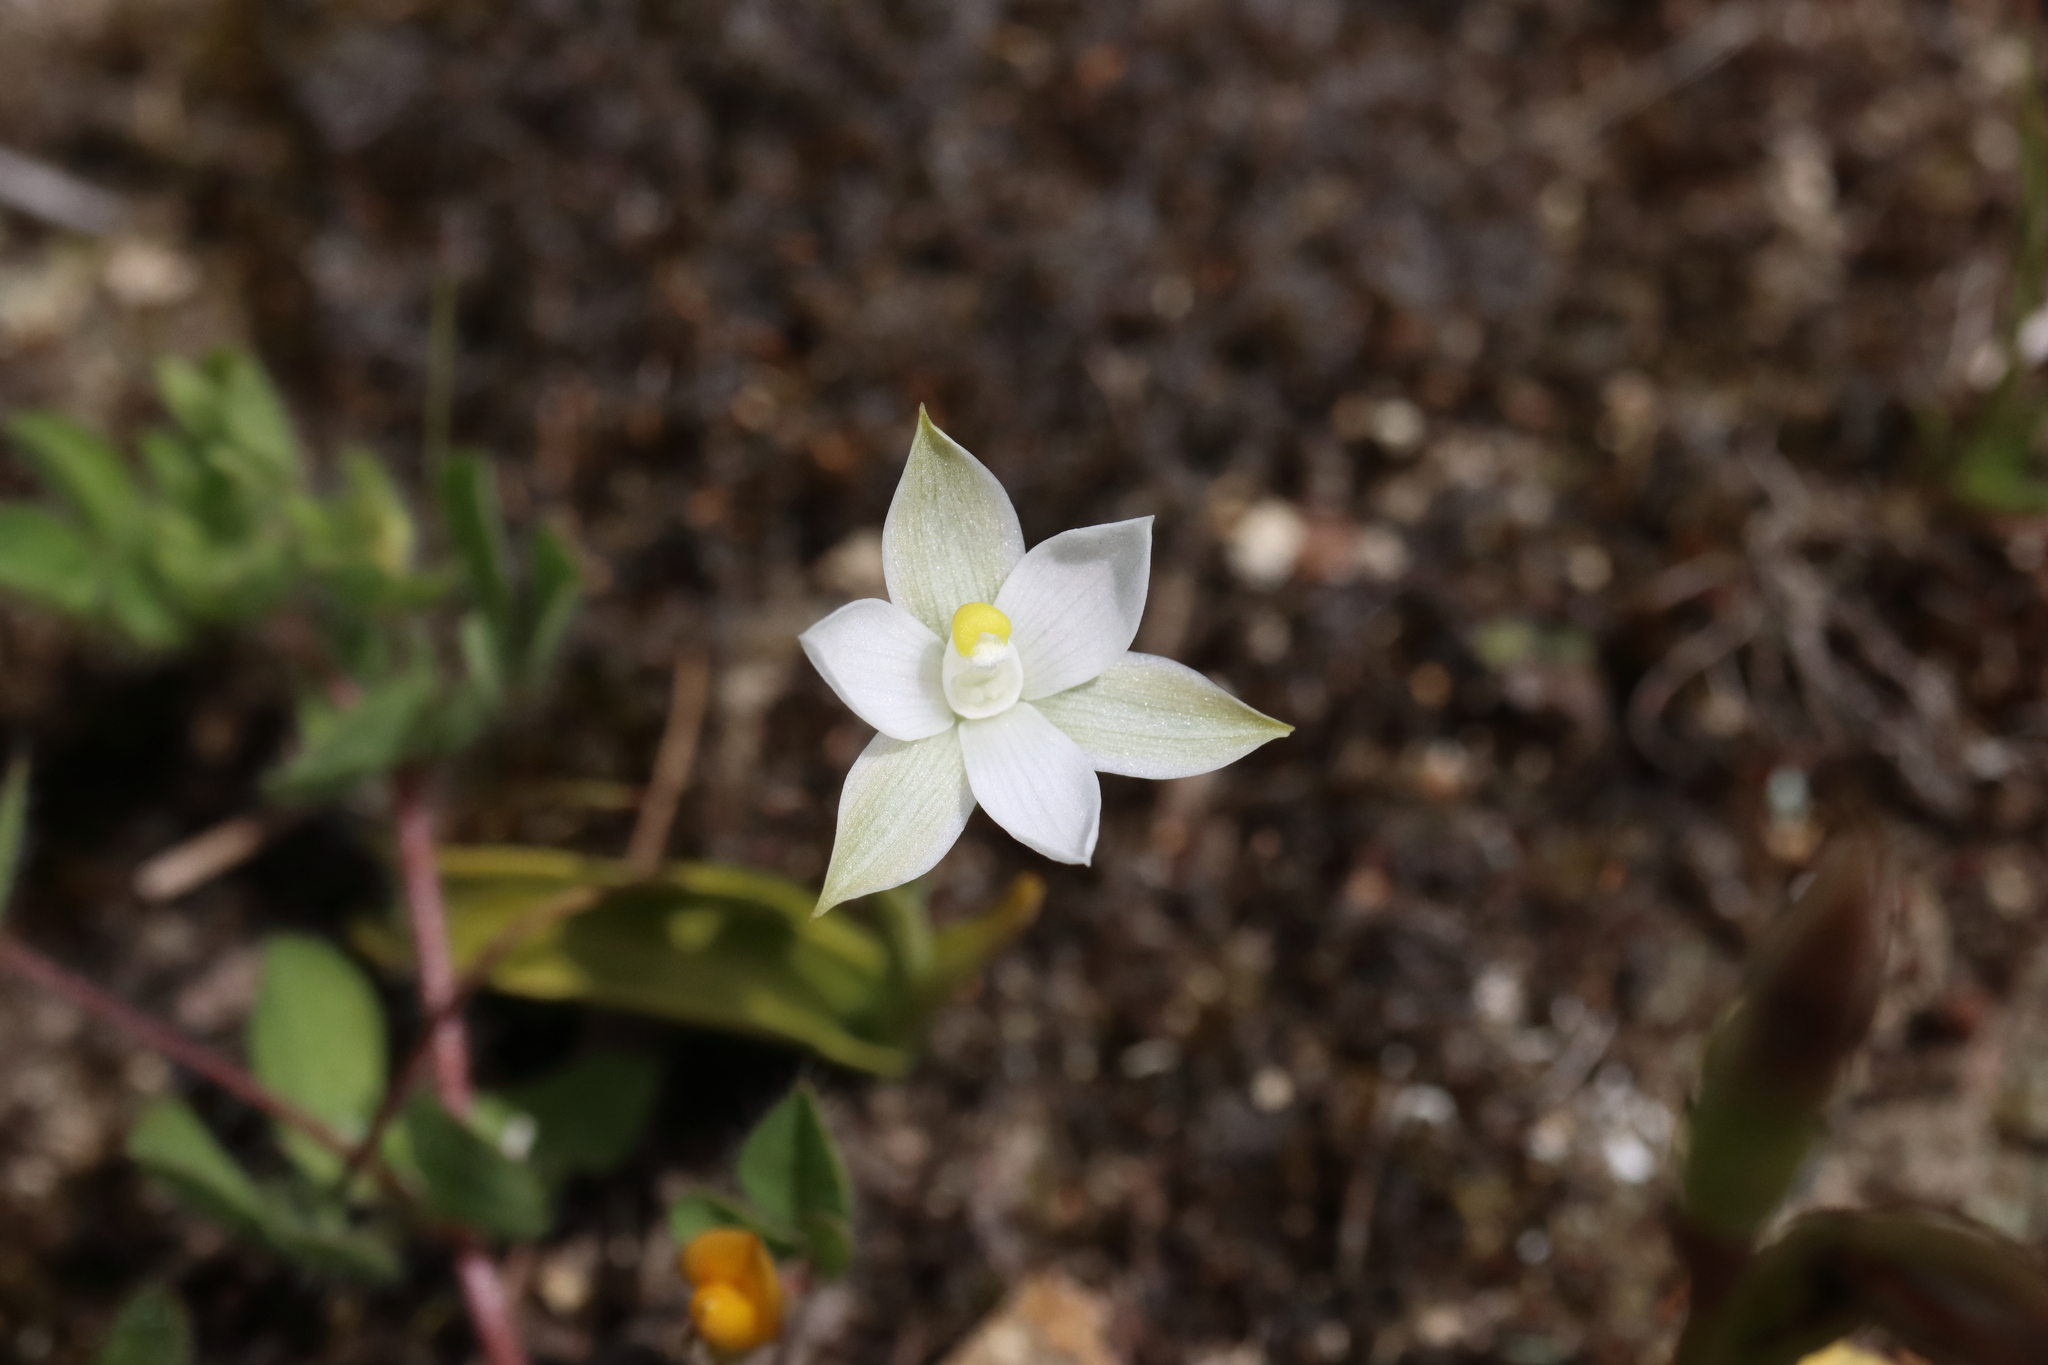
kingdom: Plantae
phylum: Tracheophyta
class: Liliopsida
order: Asparagales
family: Orchidaceae
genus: Thelymitra
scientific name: Thelymitra longifolia
